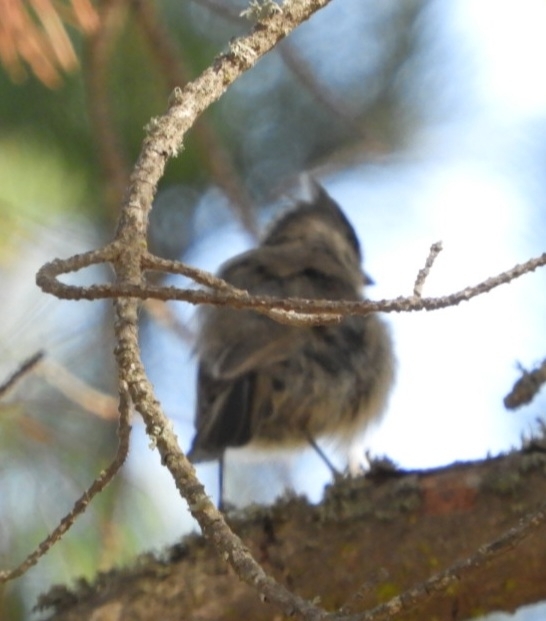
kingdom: Animalia
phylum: Chordata
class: Aves
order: Passeriformes
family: Paridae
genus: Baeolophus
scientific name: Baeolophus inornatus
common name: Oak titmouse
